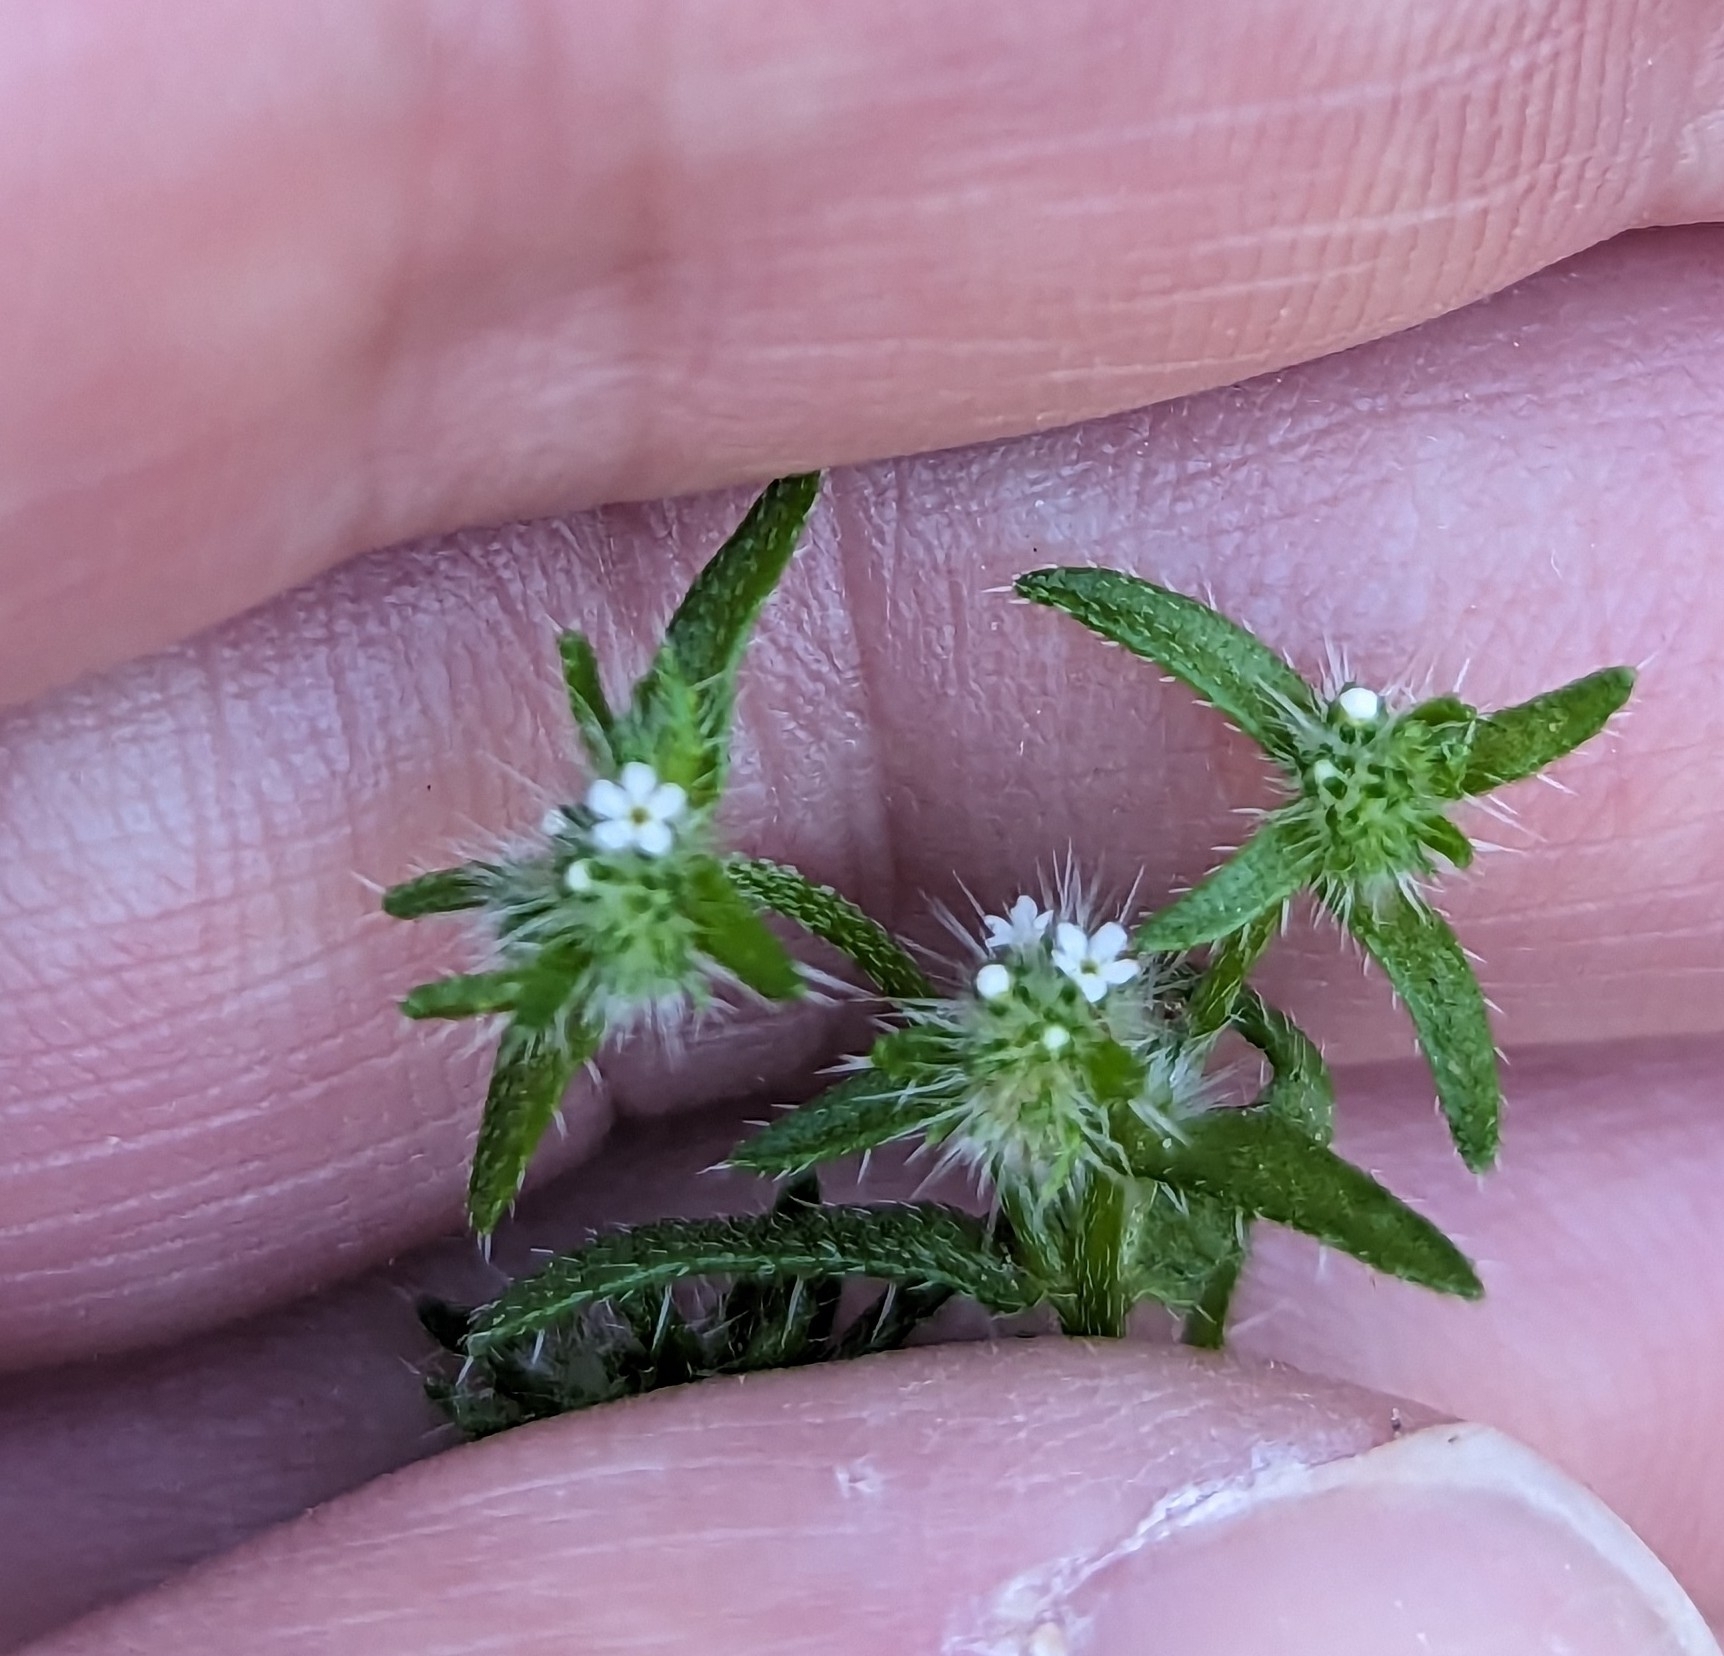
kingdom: Plantae
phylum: Tracheophyta
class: Magnoliopsida
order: Boraginales
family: Boraginaceae
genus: Cryptantha
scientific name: Cryptantha maritima
